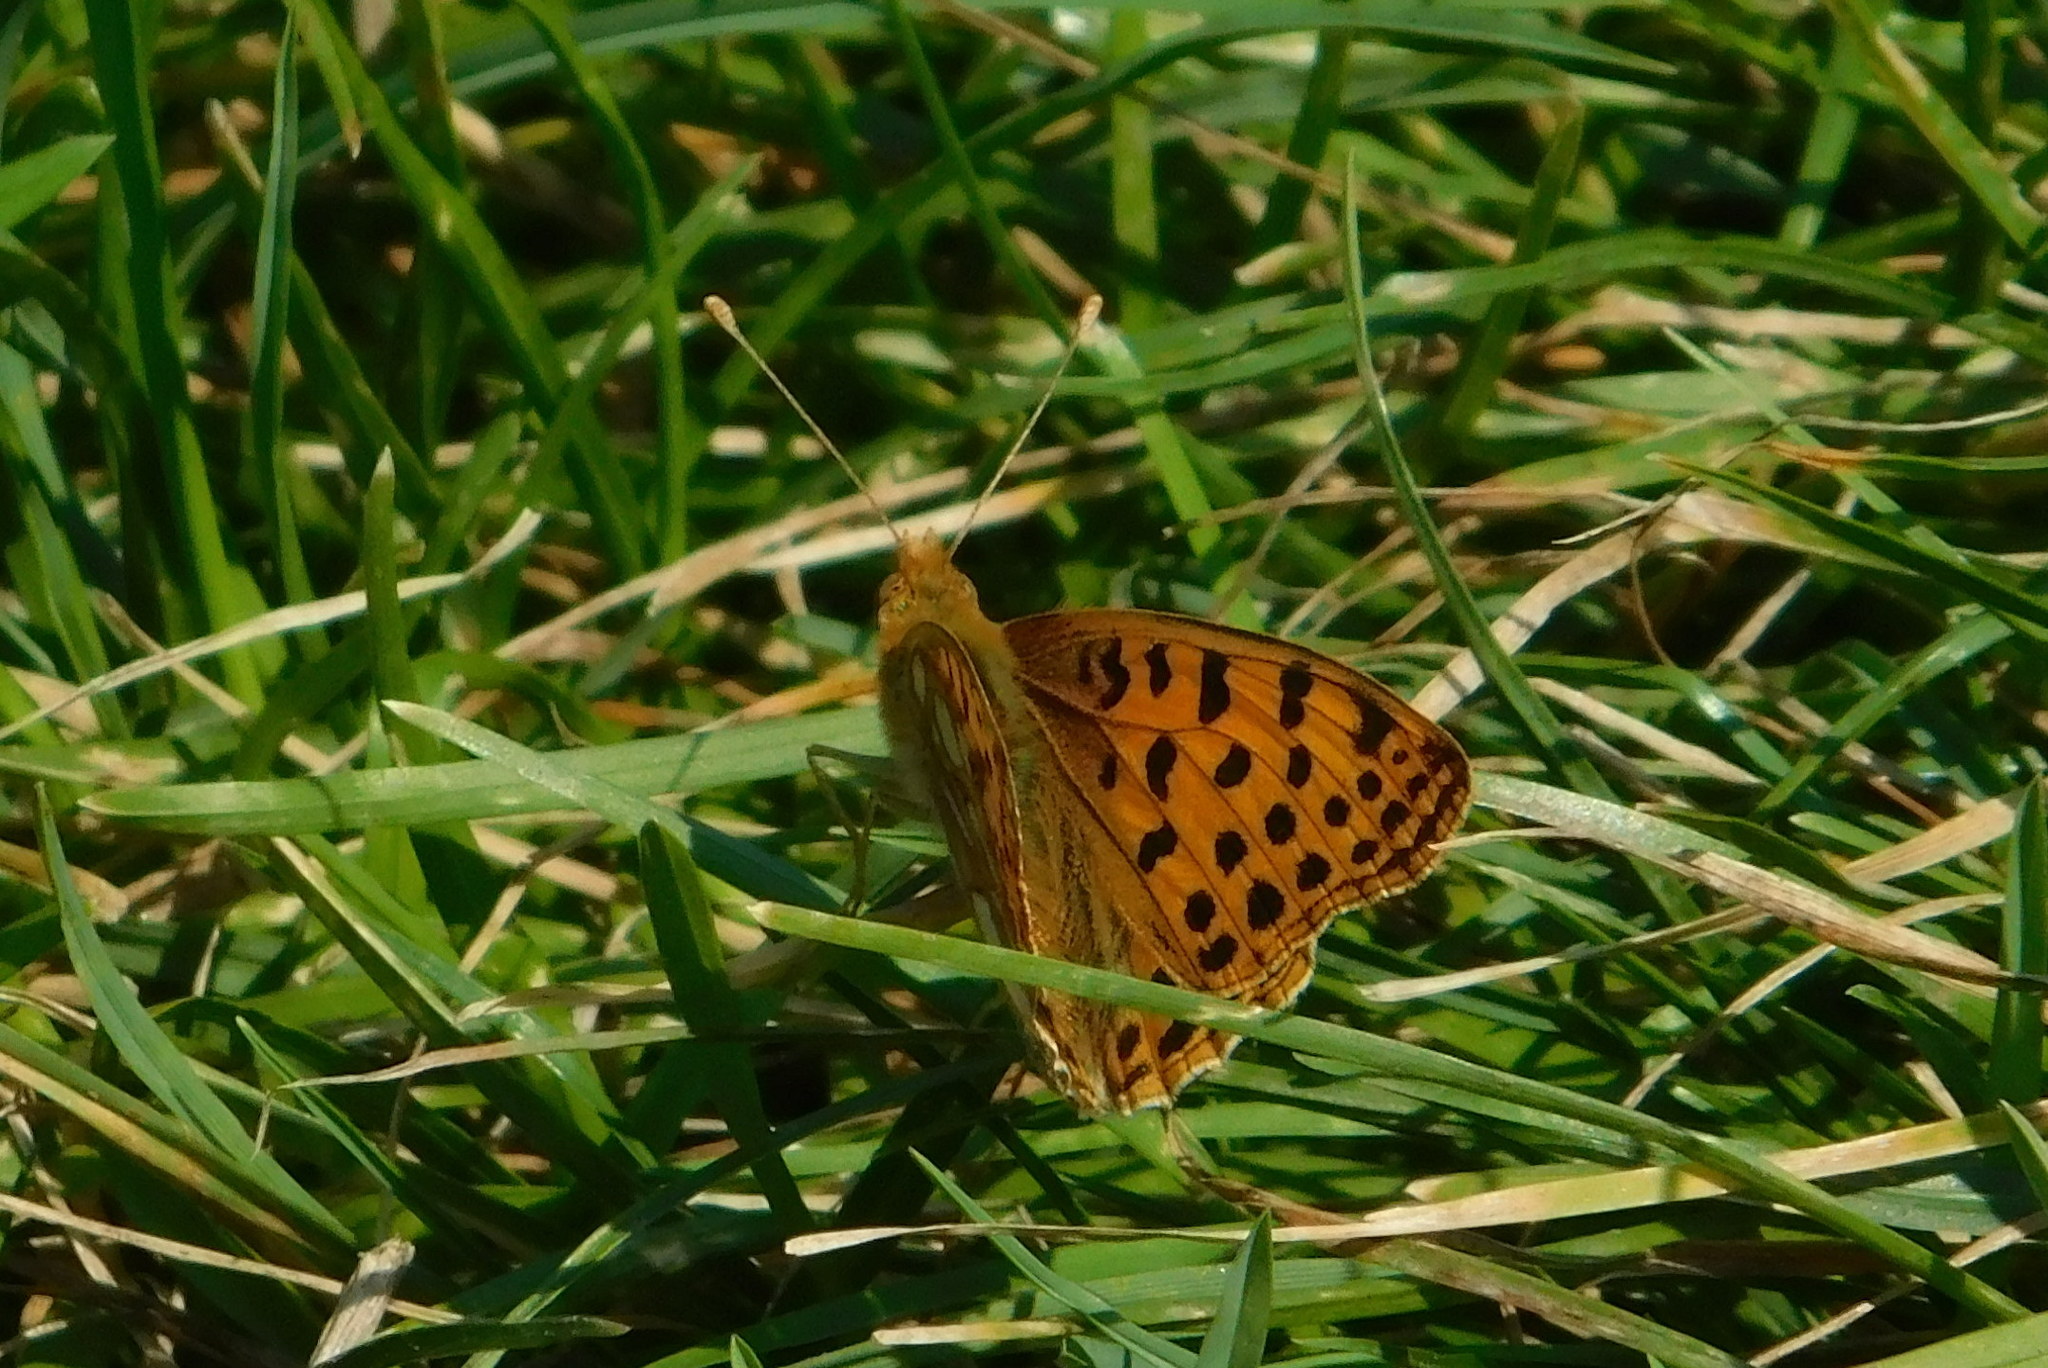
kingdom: Animalia
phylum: Arthropoda
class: Insecta
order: Lepidoptera
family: Nymphalidae
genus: Issoria
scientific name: Issoria lathonia
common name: Queen of spain fritillary
